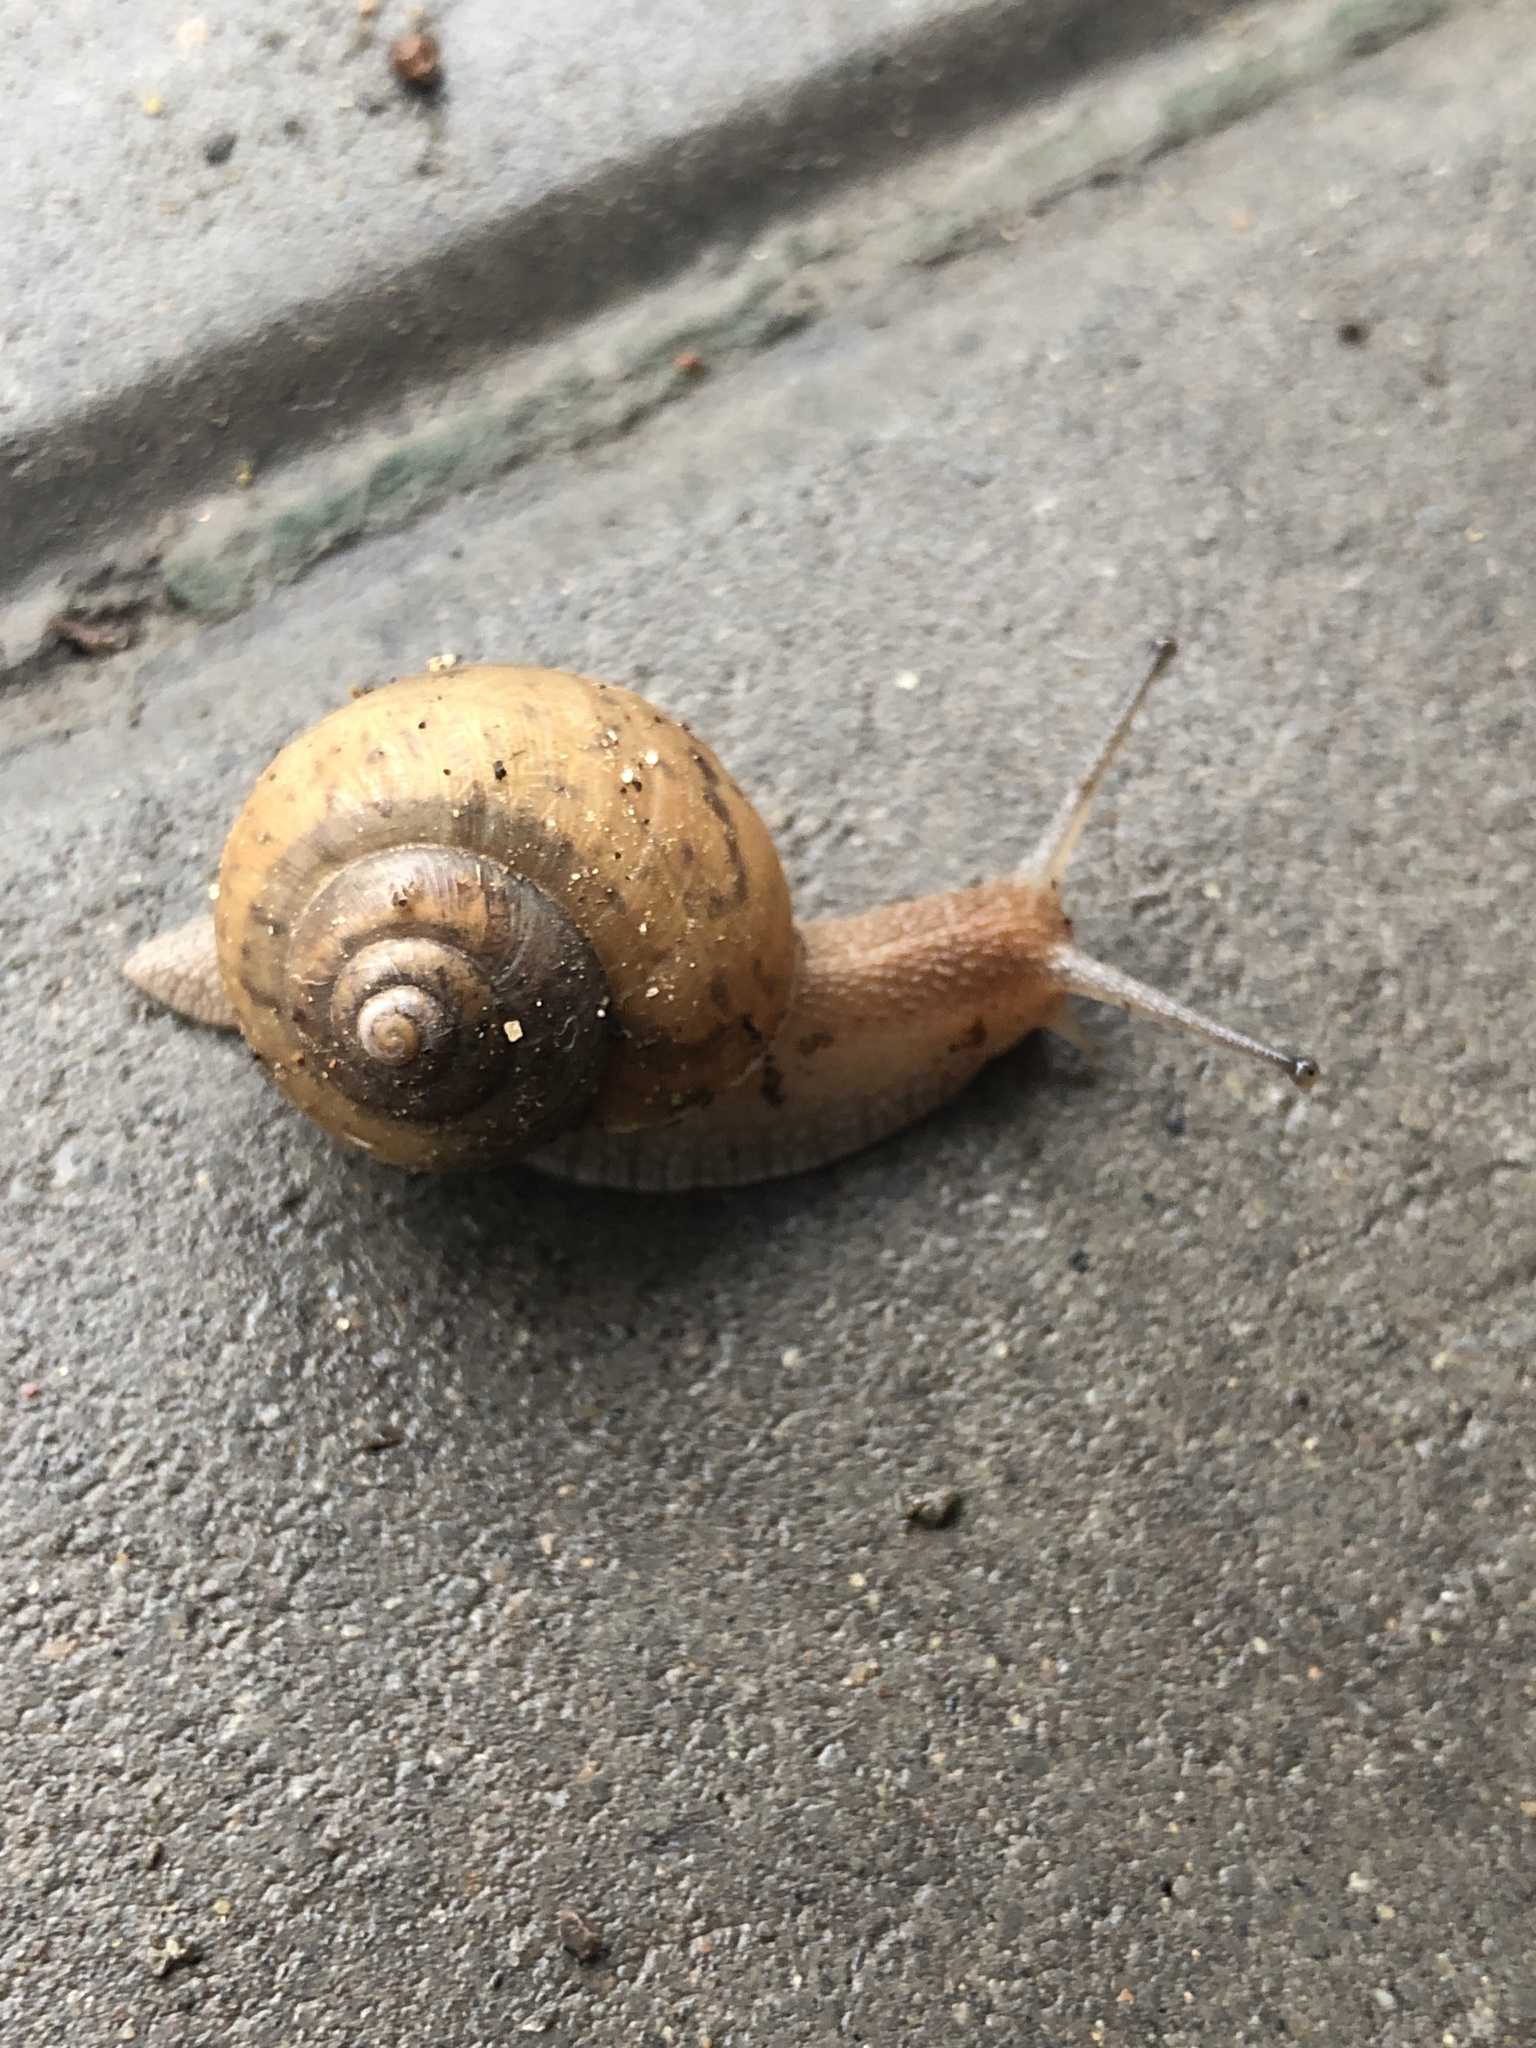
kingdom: Animalia
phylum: Mollusca
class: Gastropoda
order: Stylommatophora
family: Camaenidae
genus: Acusta
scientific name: Acusta ravida
